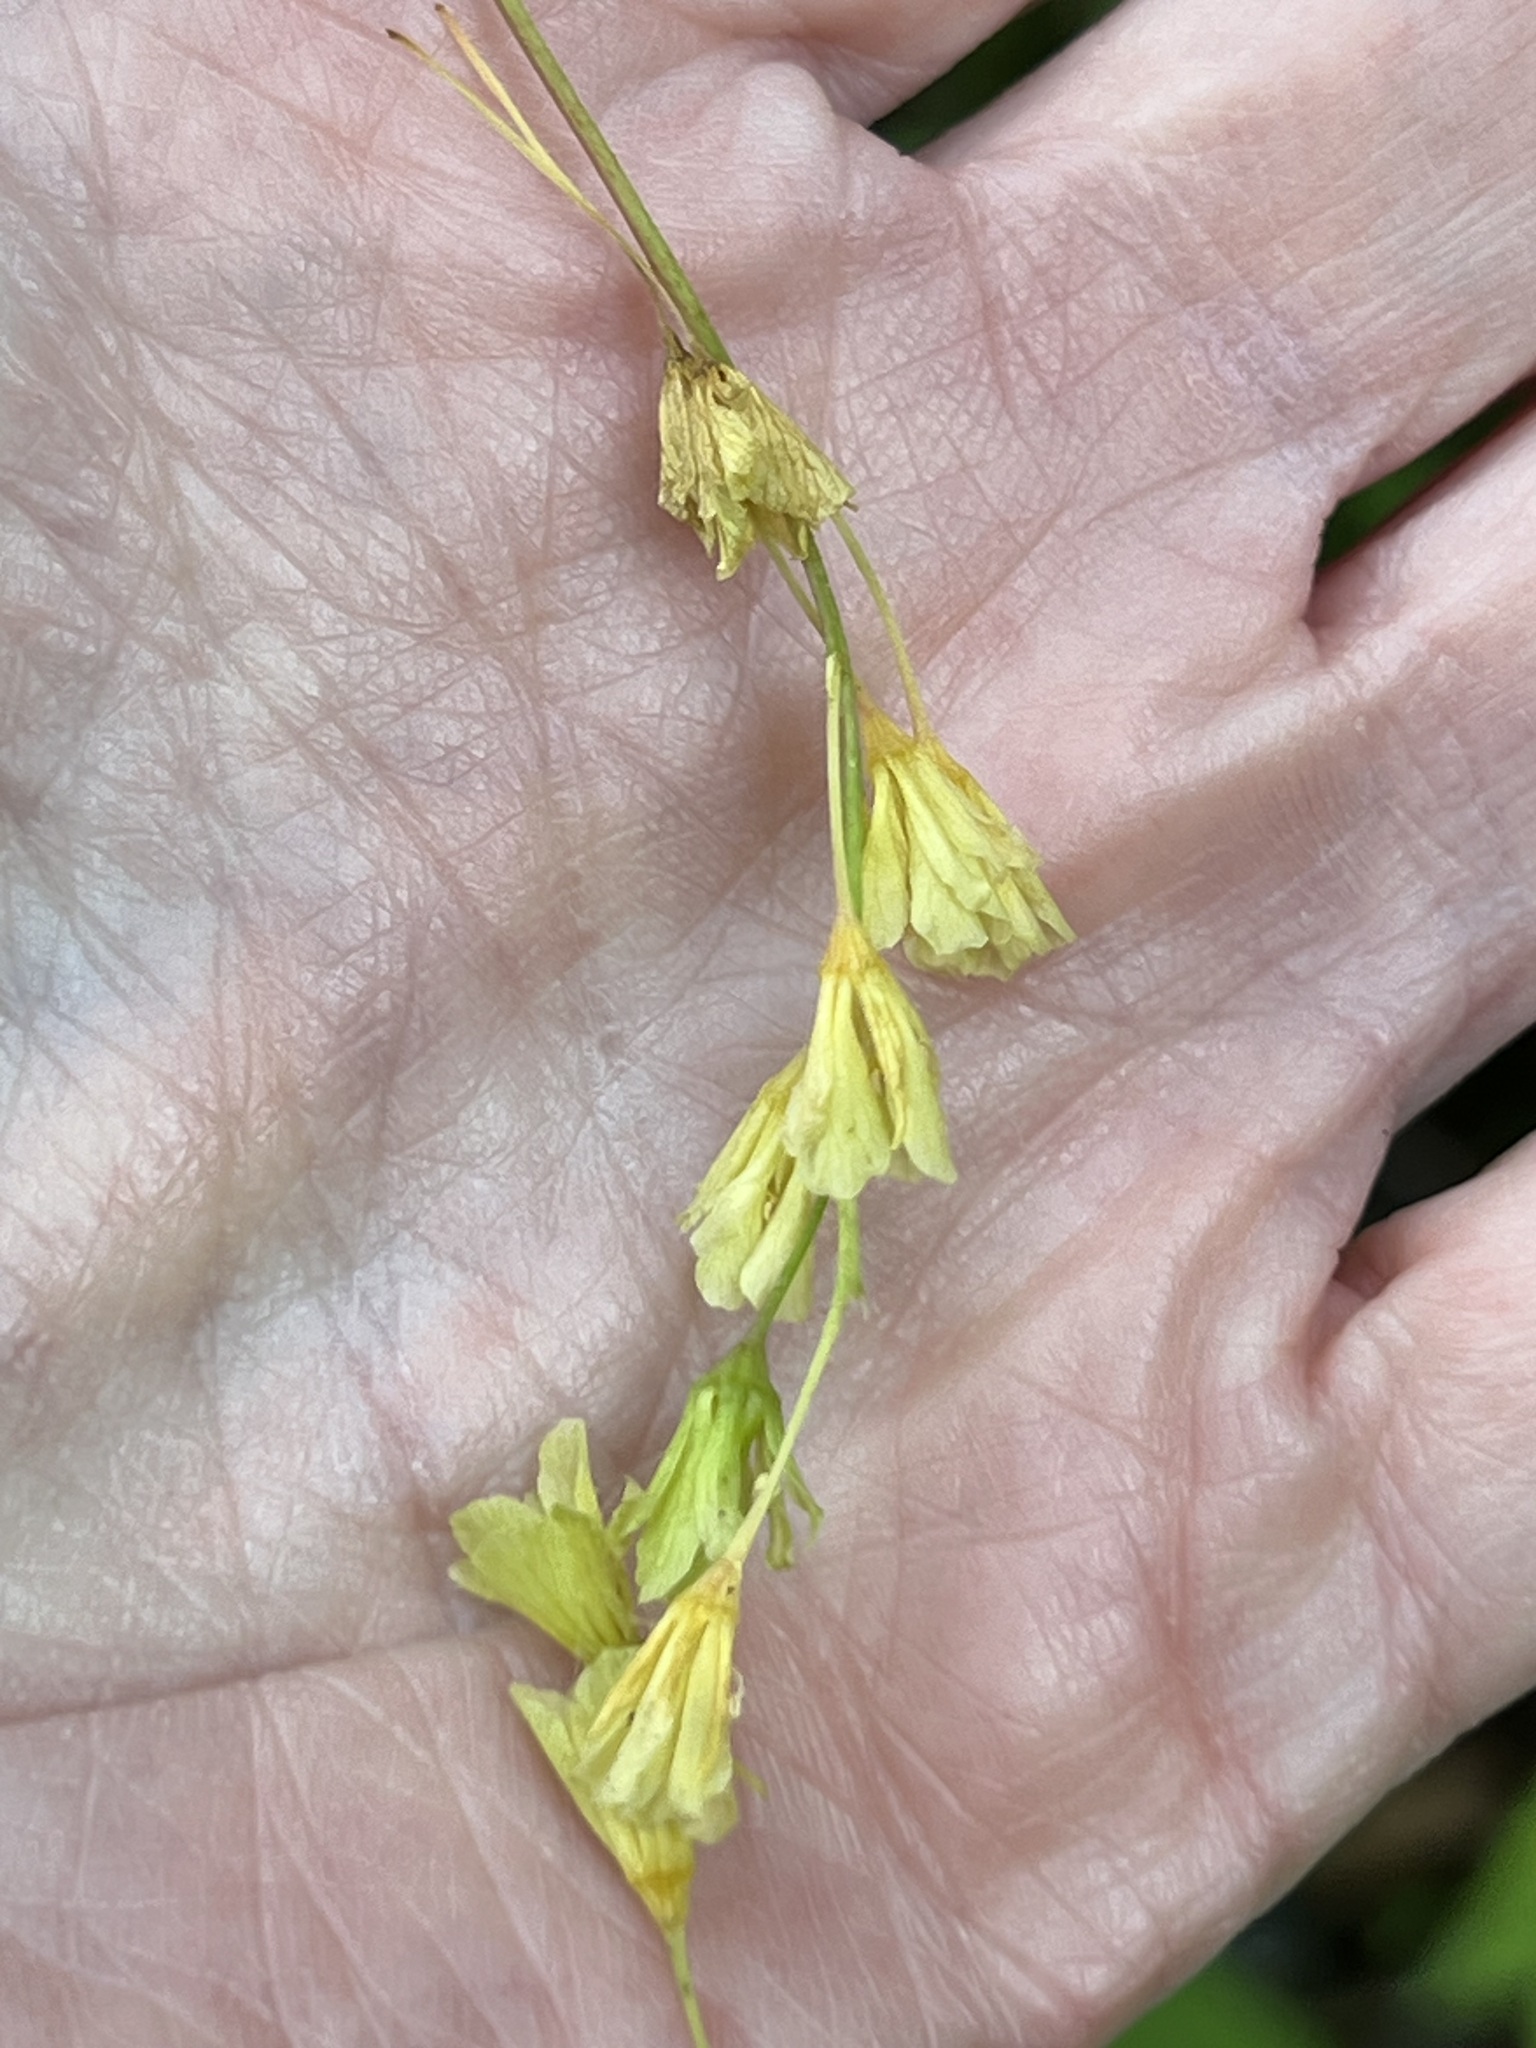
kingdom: Plantae
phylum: Tracheophyta
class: Magnoliopsida
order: Sapindales
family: Sapindaceae
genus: Acer
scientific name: Acer pensylvanicum
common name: Moosewood
